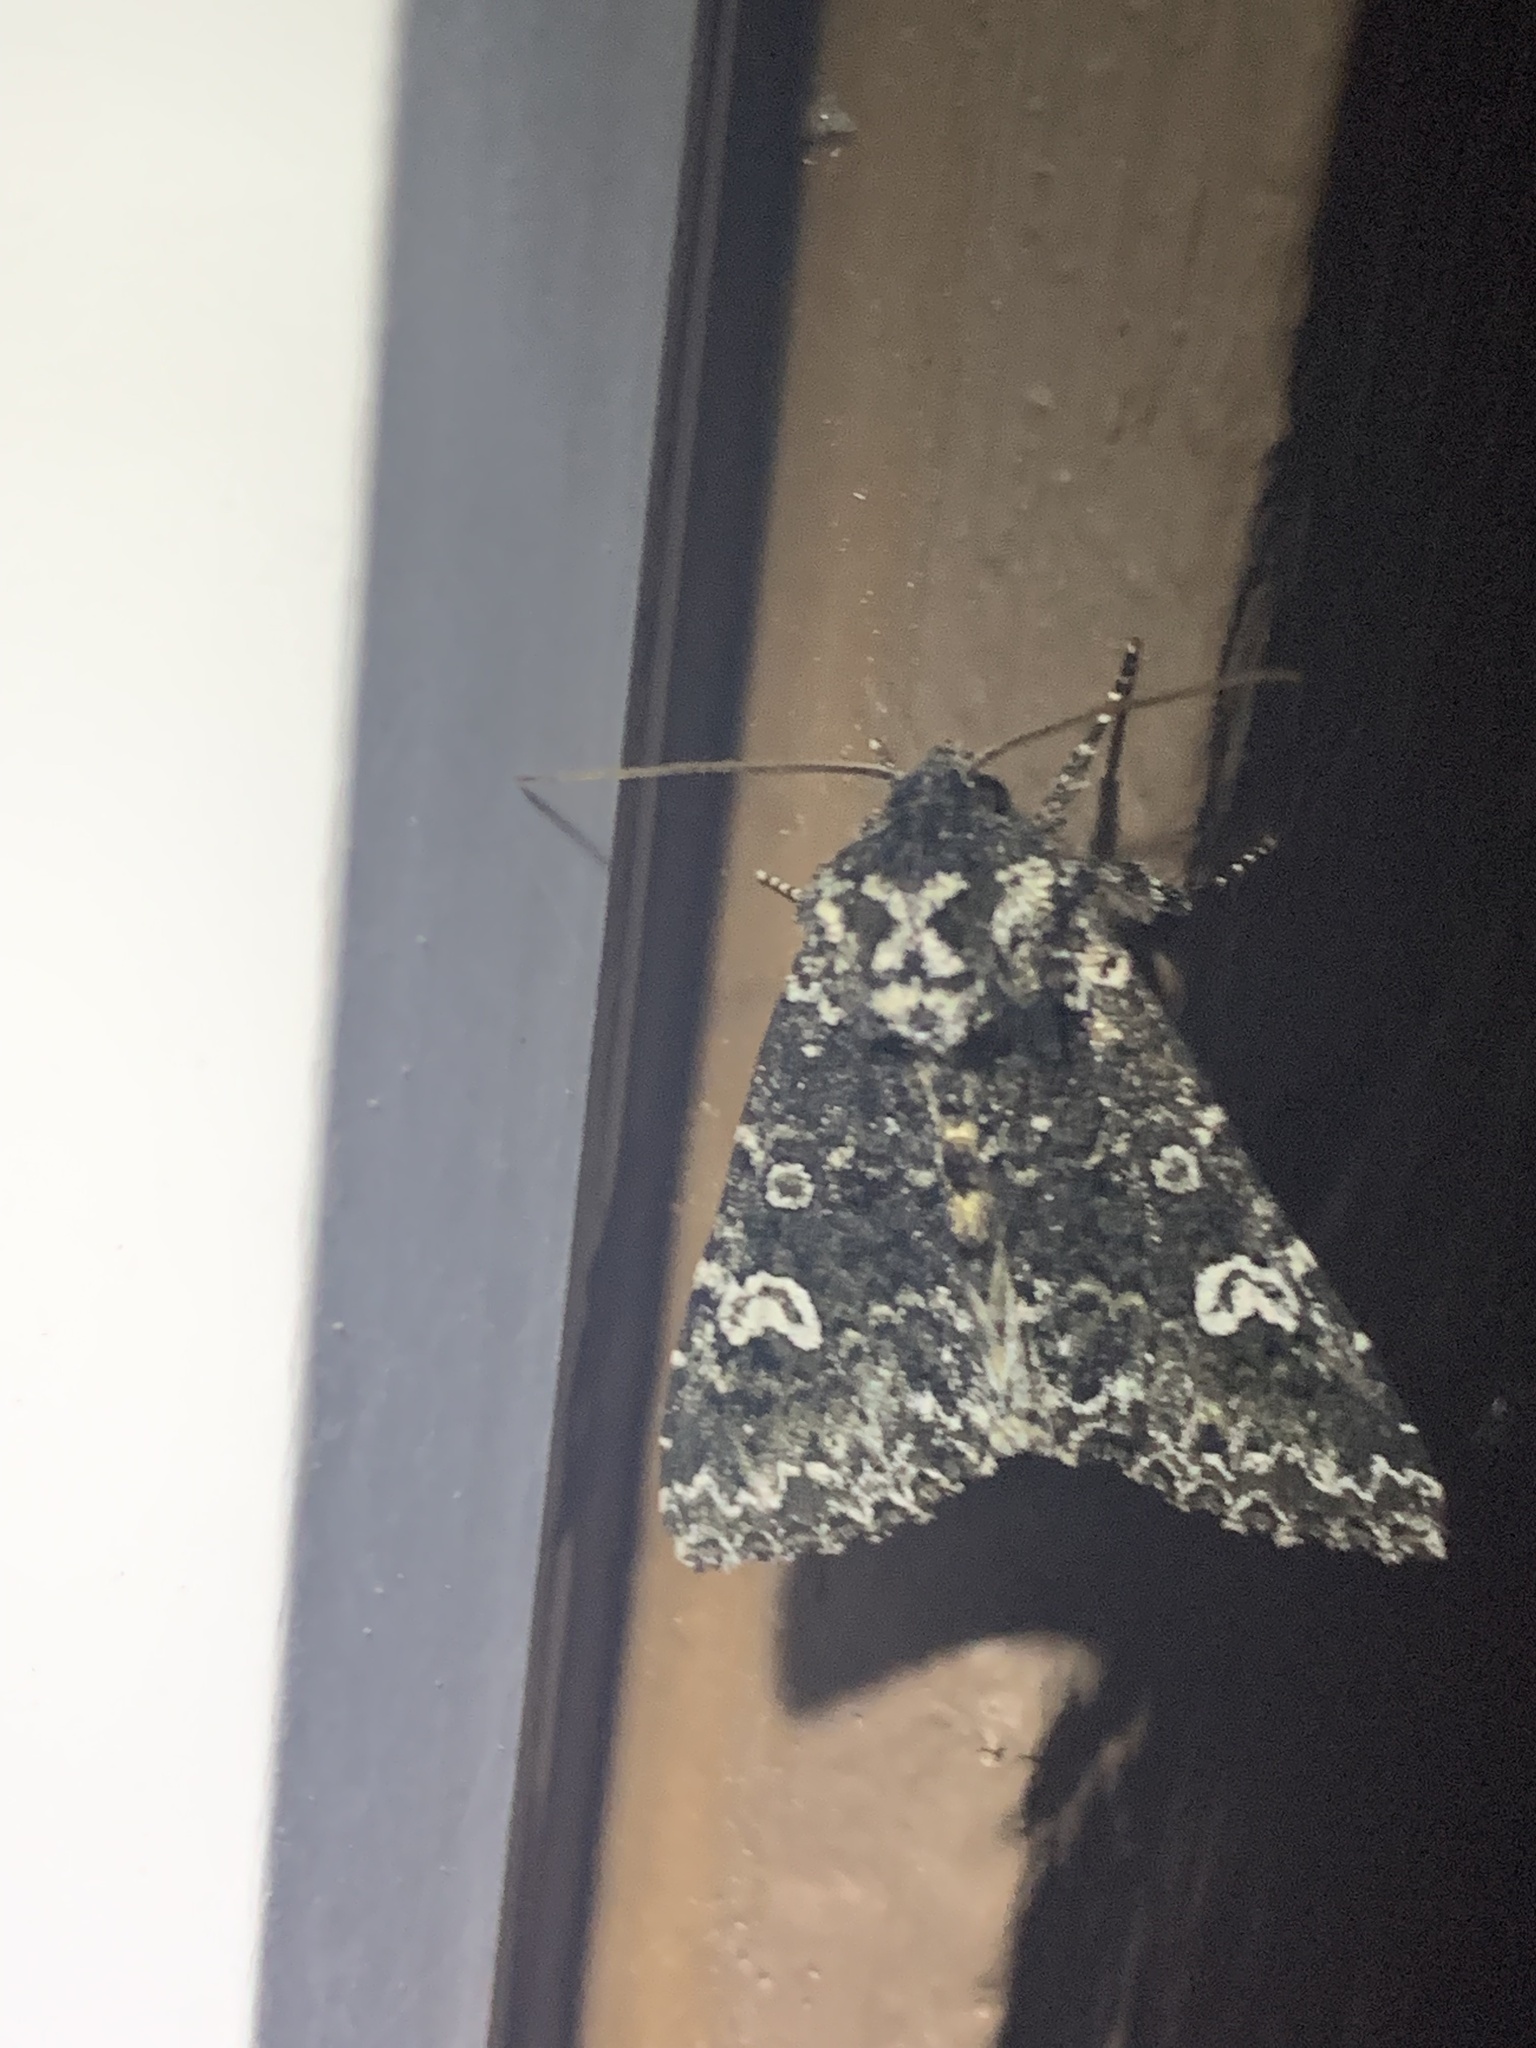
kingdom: Animalia
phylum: Arthropoda
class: Insecta
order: Lepidoptera
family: Noctuidae
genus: Melanchra
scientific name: Melanchra adjuncta
